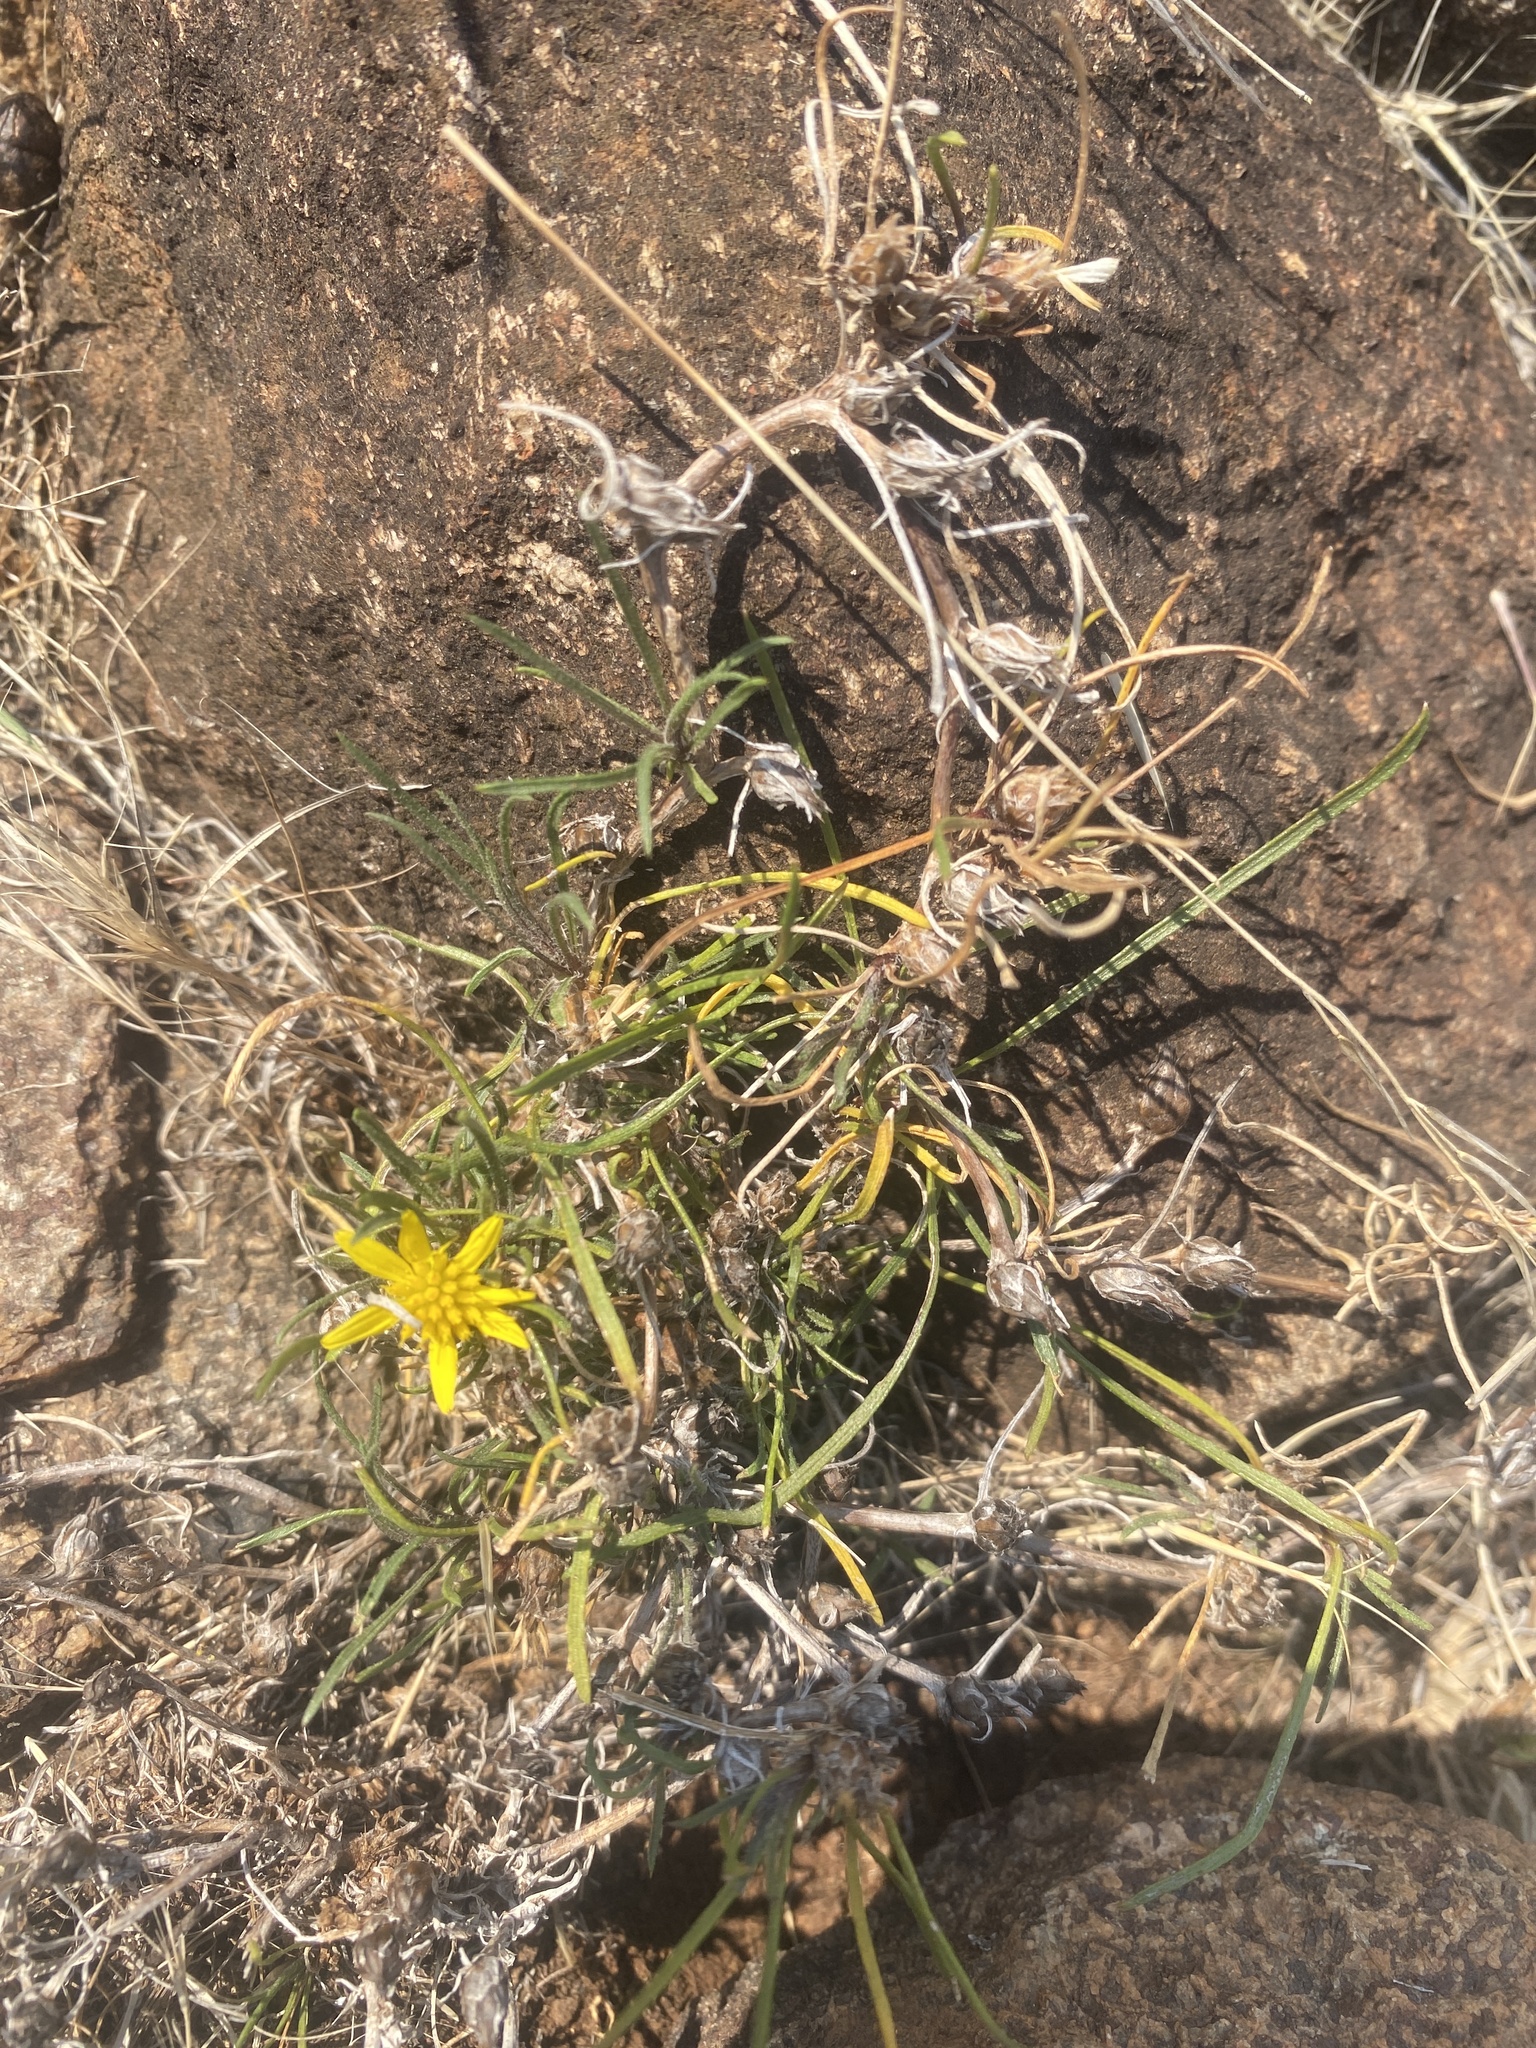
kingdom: Plantae
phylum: Tracheophyta
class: Magnoliopsida
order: Asterales
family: Asteraceae
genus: Geigeria
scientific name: Geigeria ornativa
